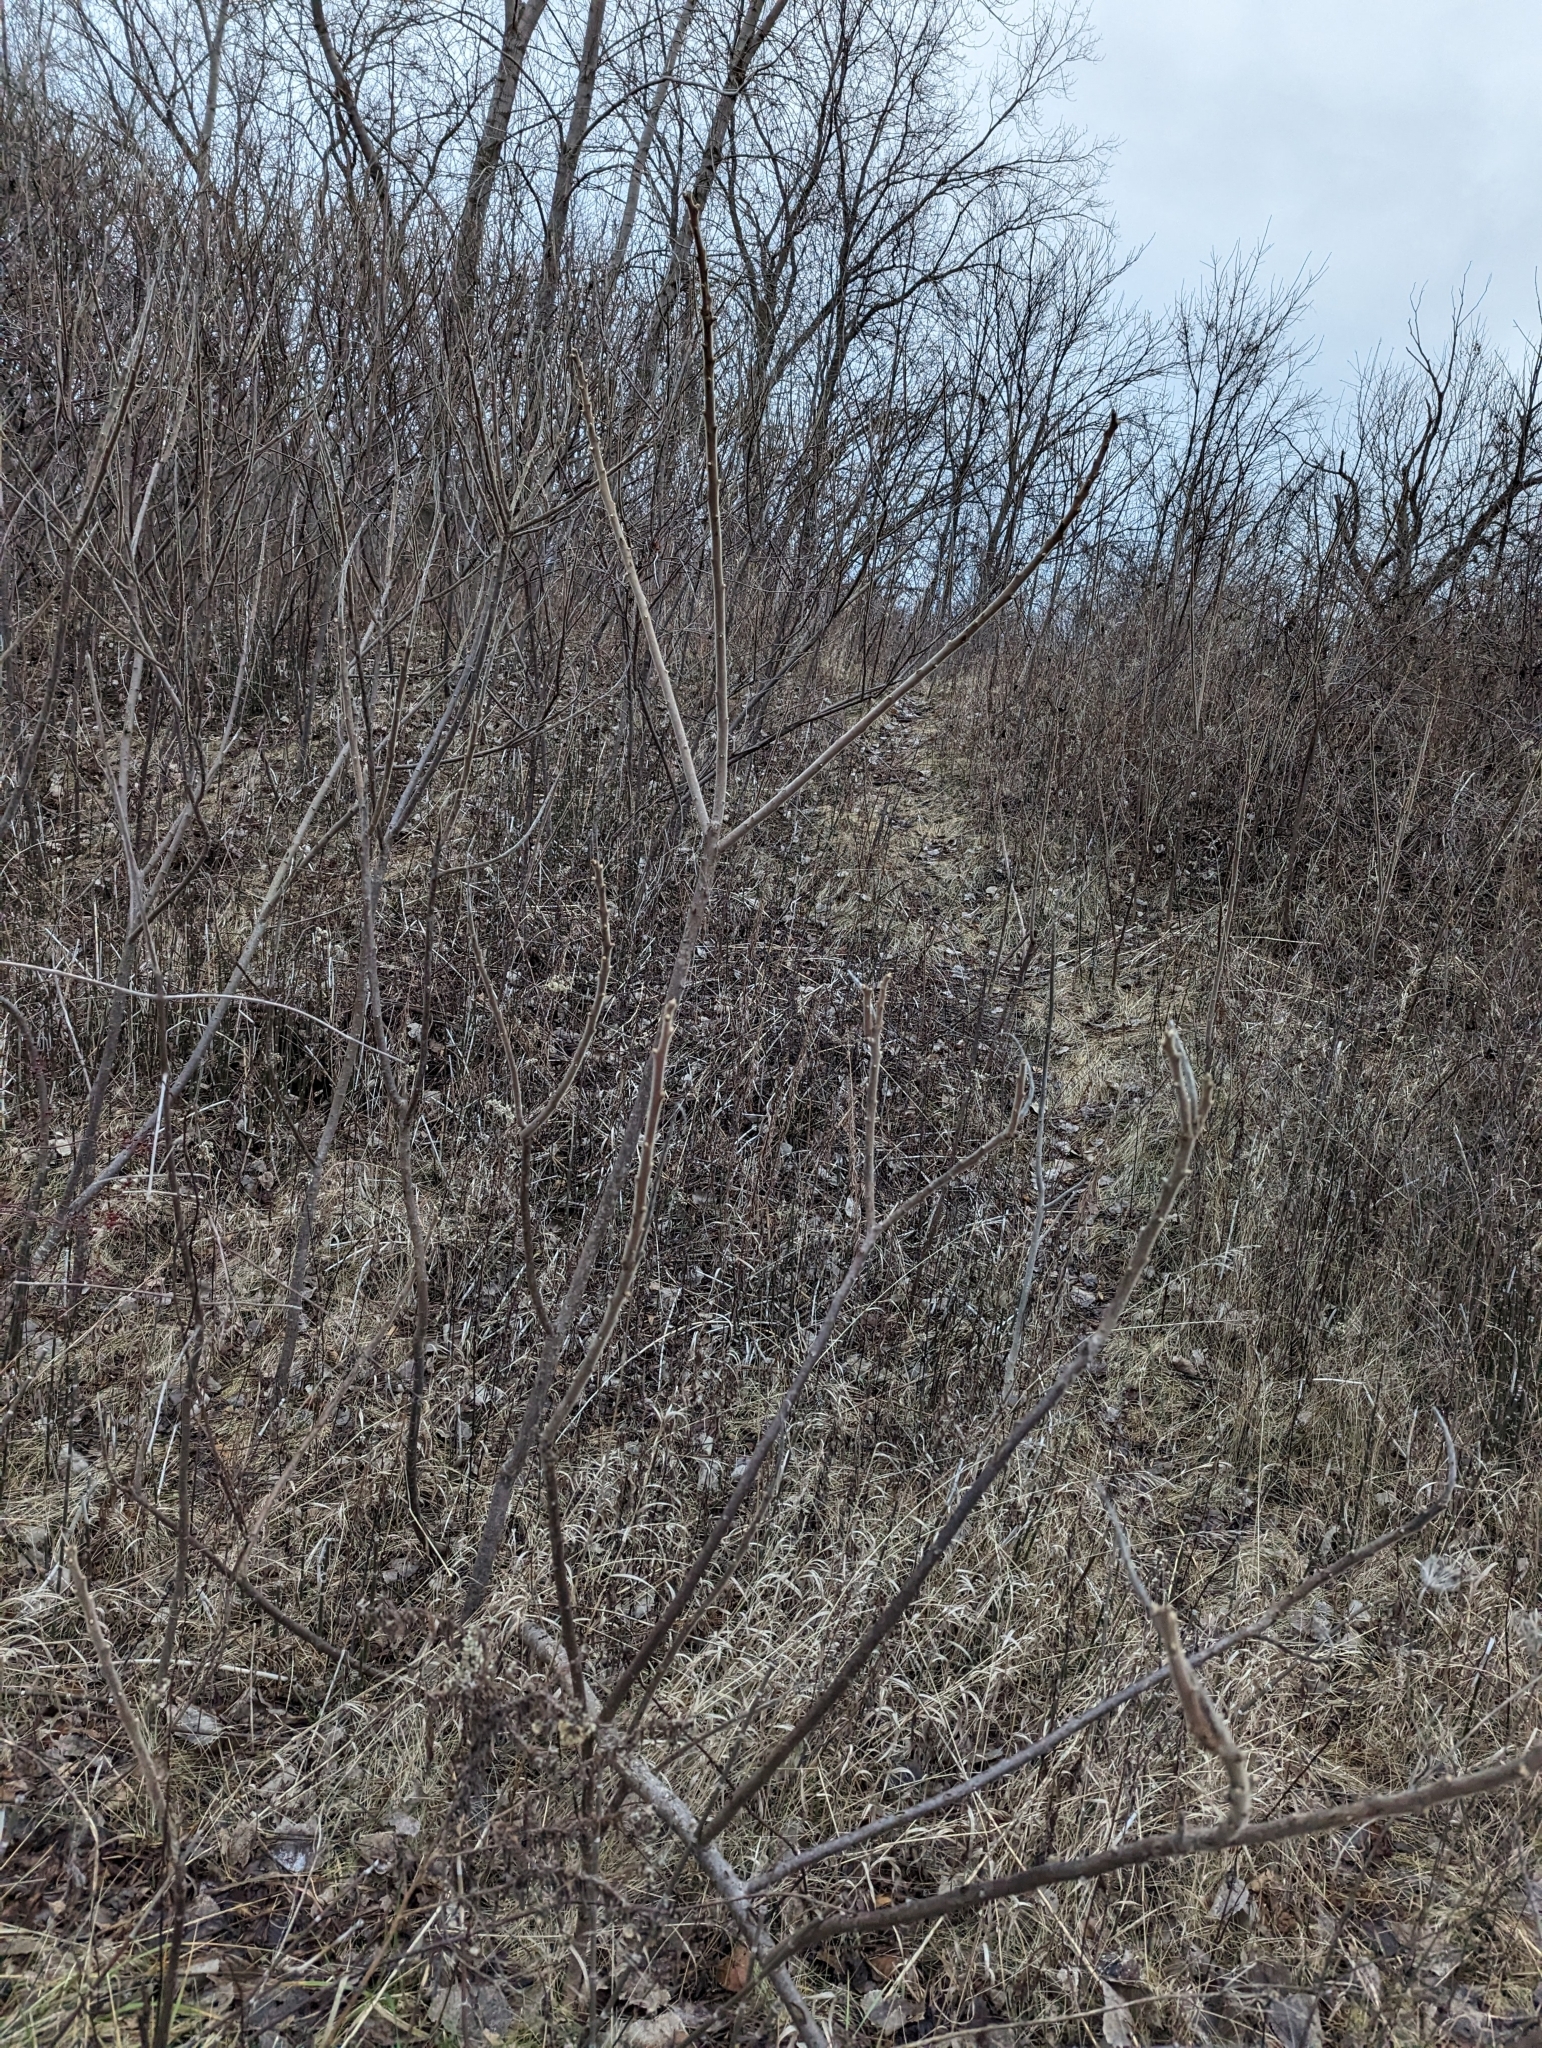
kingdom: Plantae
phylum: Tracheophyta
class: Magnoliopsida
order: Sapindales
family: Anacardiaceae
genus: Rhus
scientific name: Rhus typhina
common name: Staghorn sumac
